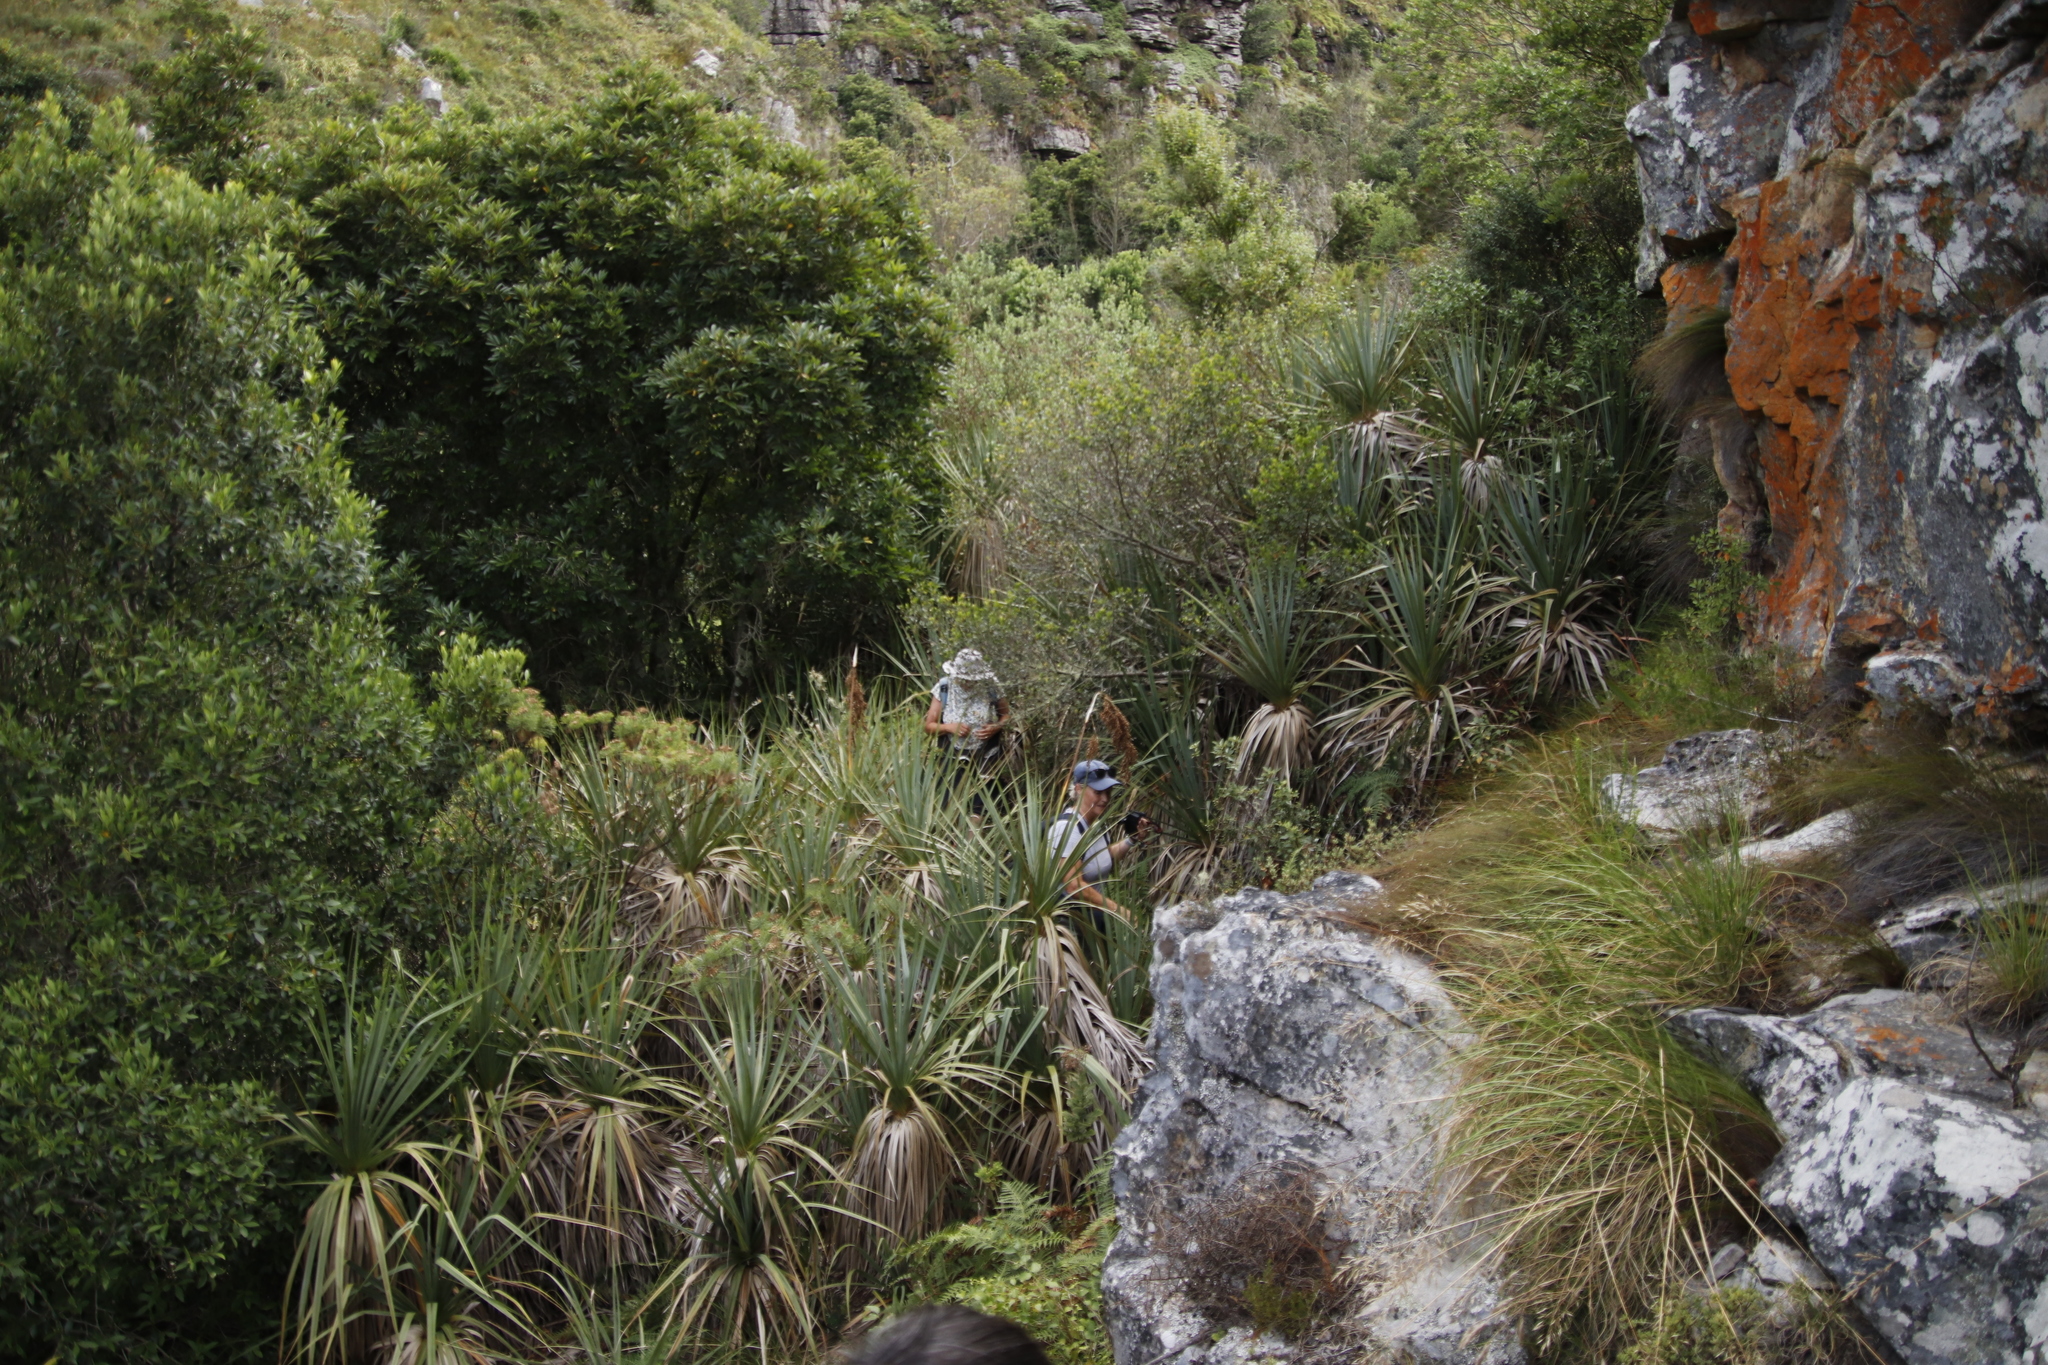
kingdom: Plantae
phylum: Tracheophyta
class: Liliopsida
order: Poales
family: Thurniaceae
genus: Prionium
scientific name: Prionium serratum
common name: Palmiet
